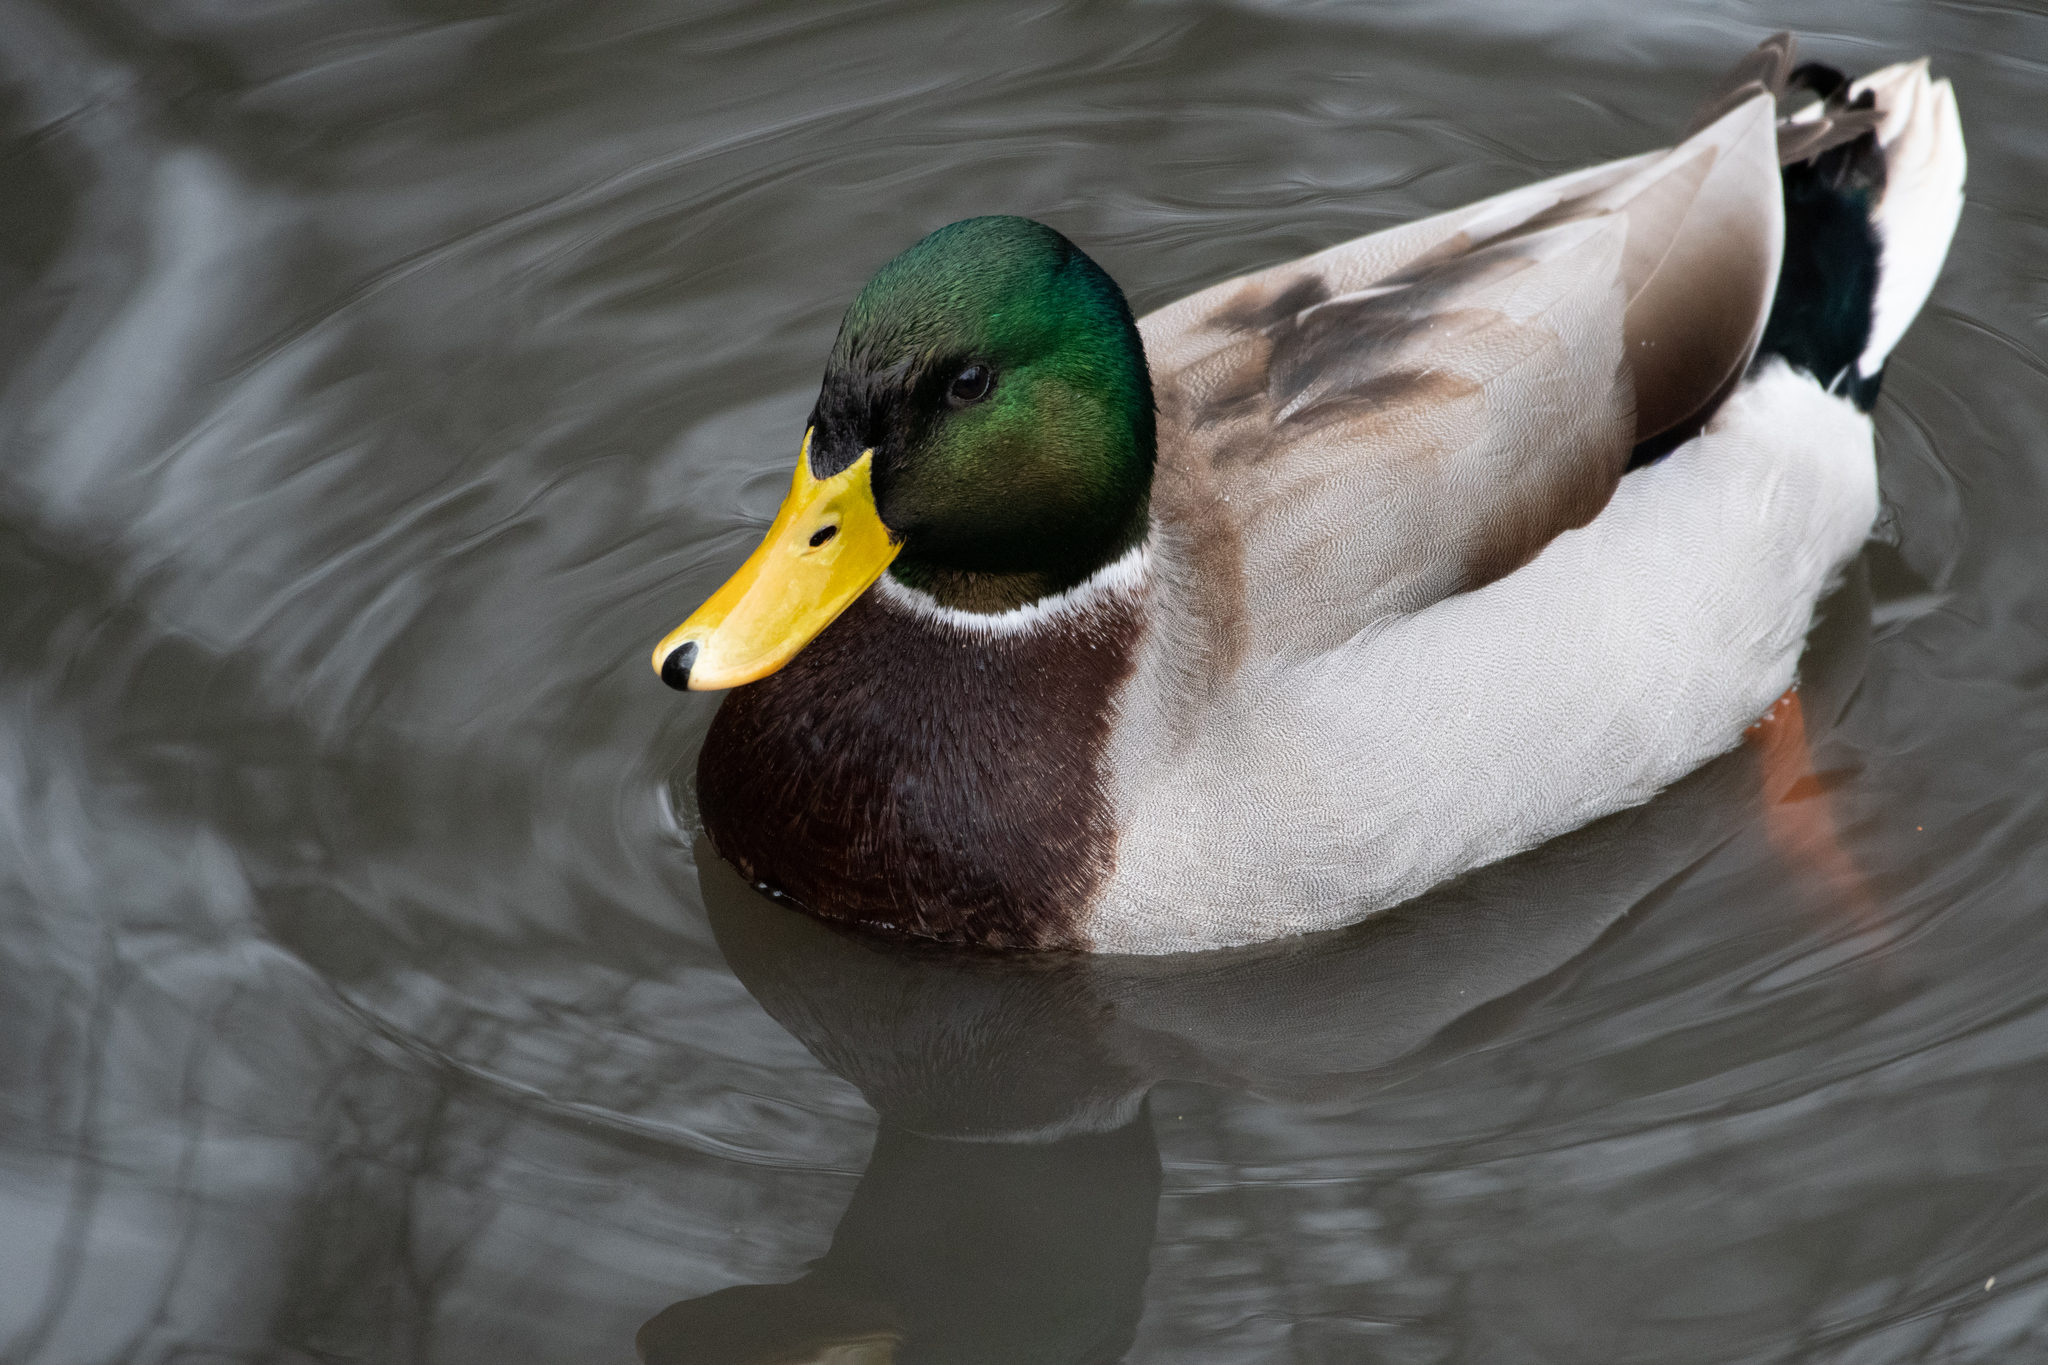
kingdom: Animalia
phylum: Chordata
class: Aves
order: Anseriformes
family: Anatidae
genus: Anas
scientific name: Anas platyrhynchos
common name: Mallard
